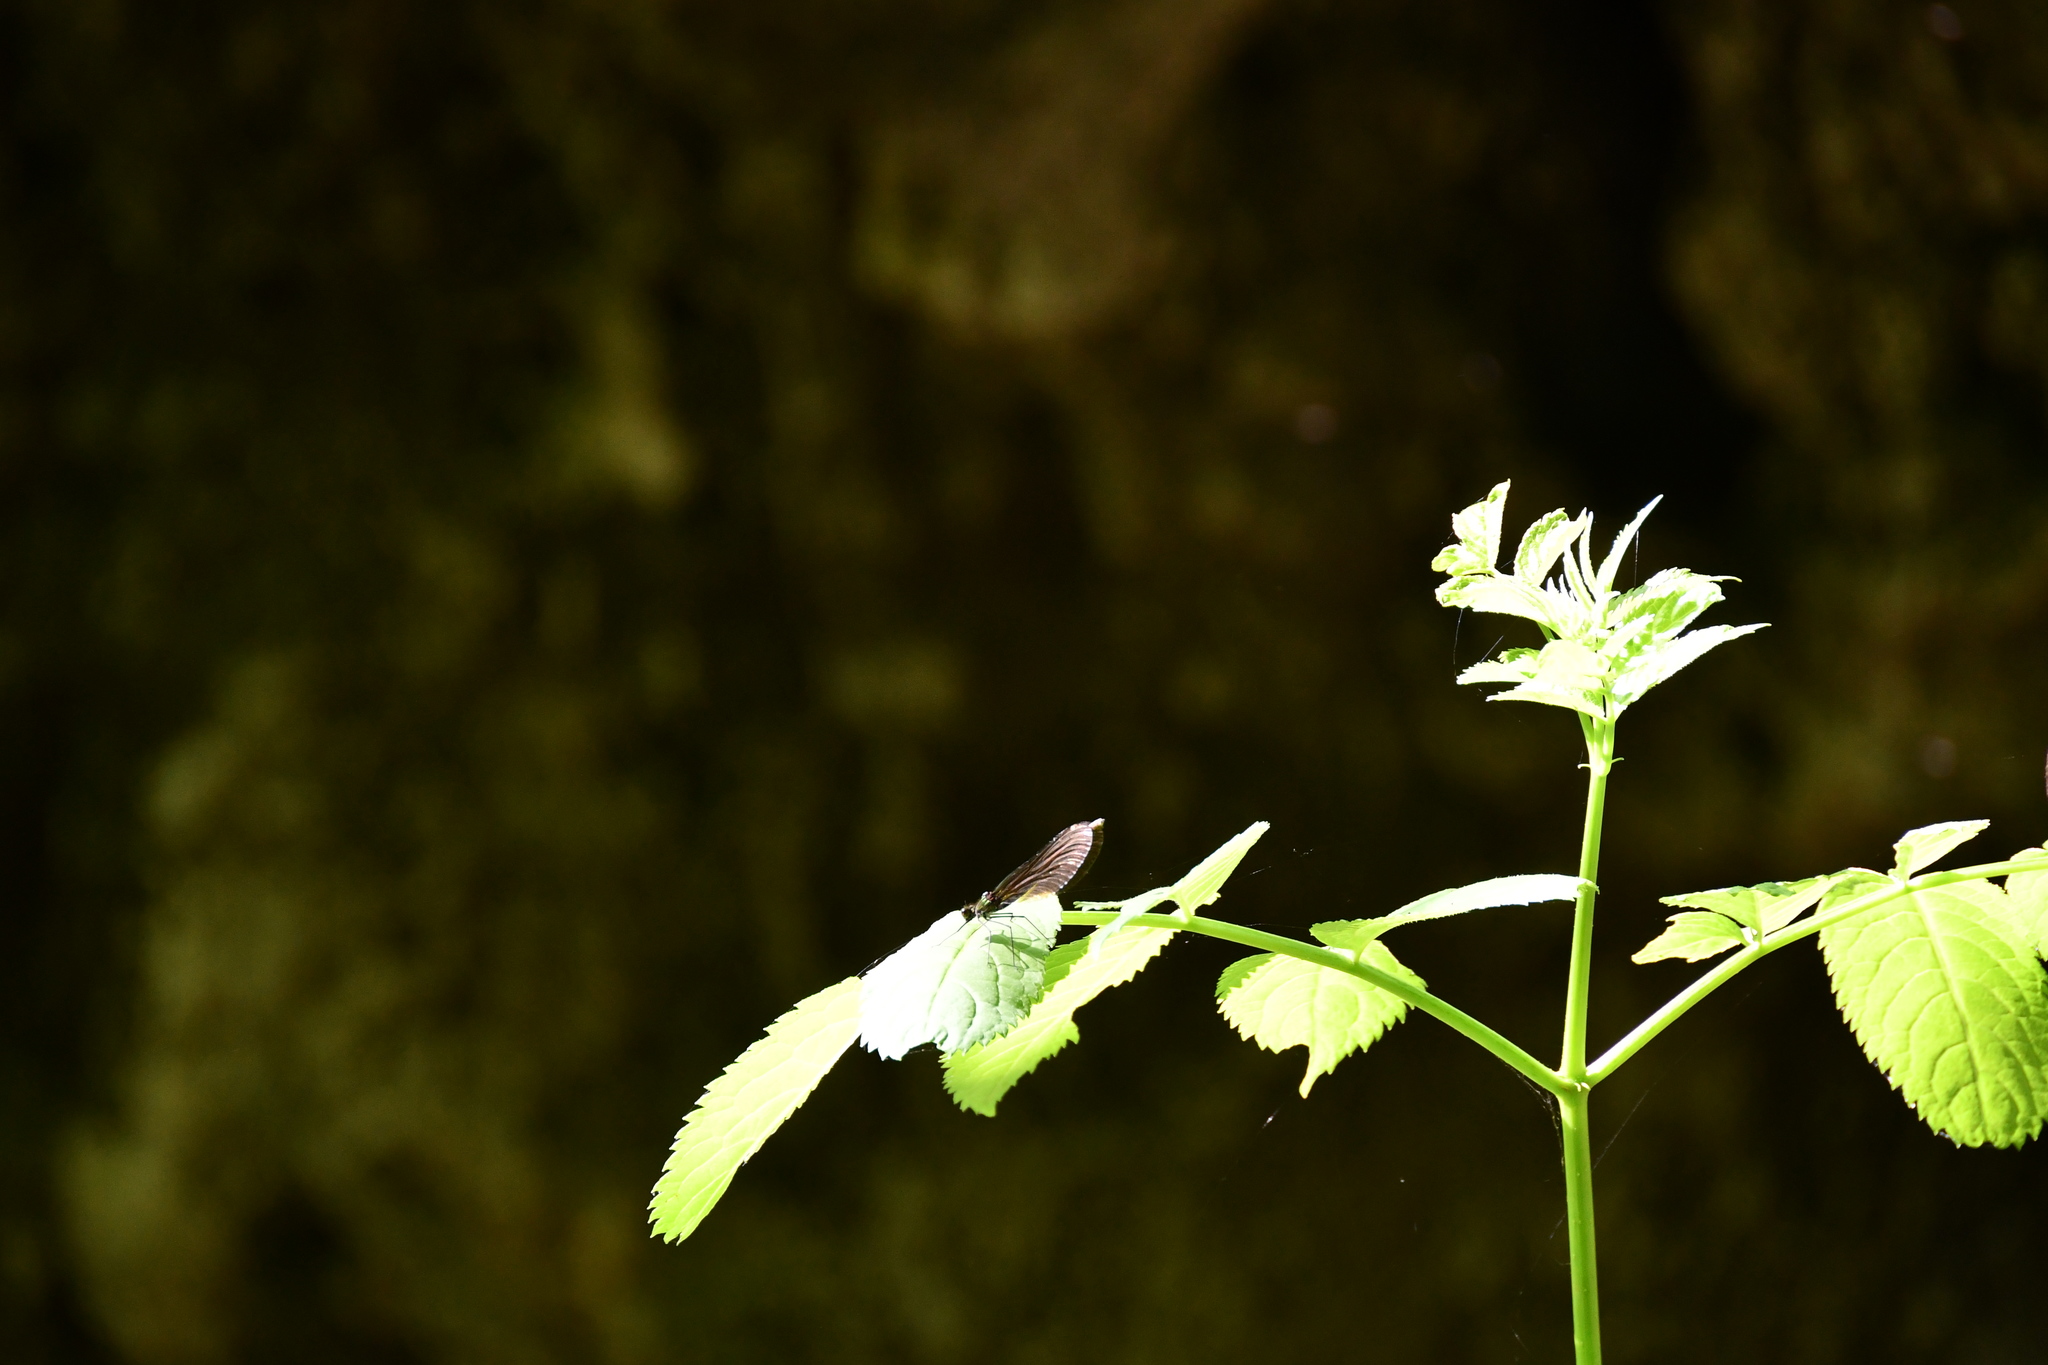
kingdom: Animalia
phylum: Arthropoda
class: Insecta
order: Odonata
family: Calopterygidae
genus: Calopteryx
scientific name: Calopteryx virgo
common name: Beautiful demoiselle
